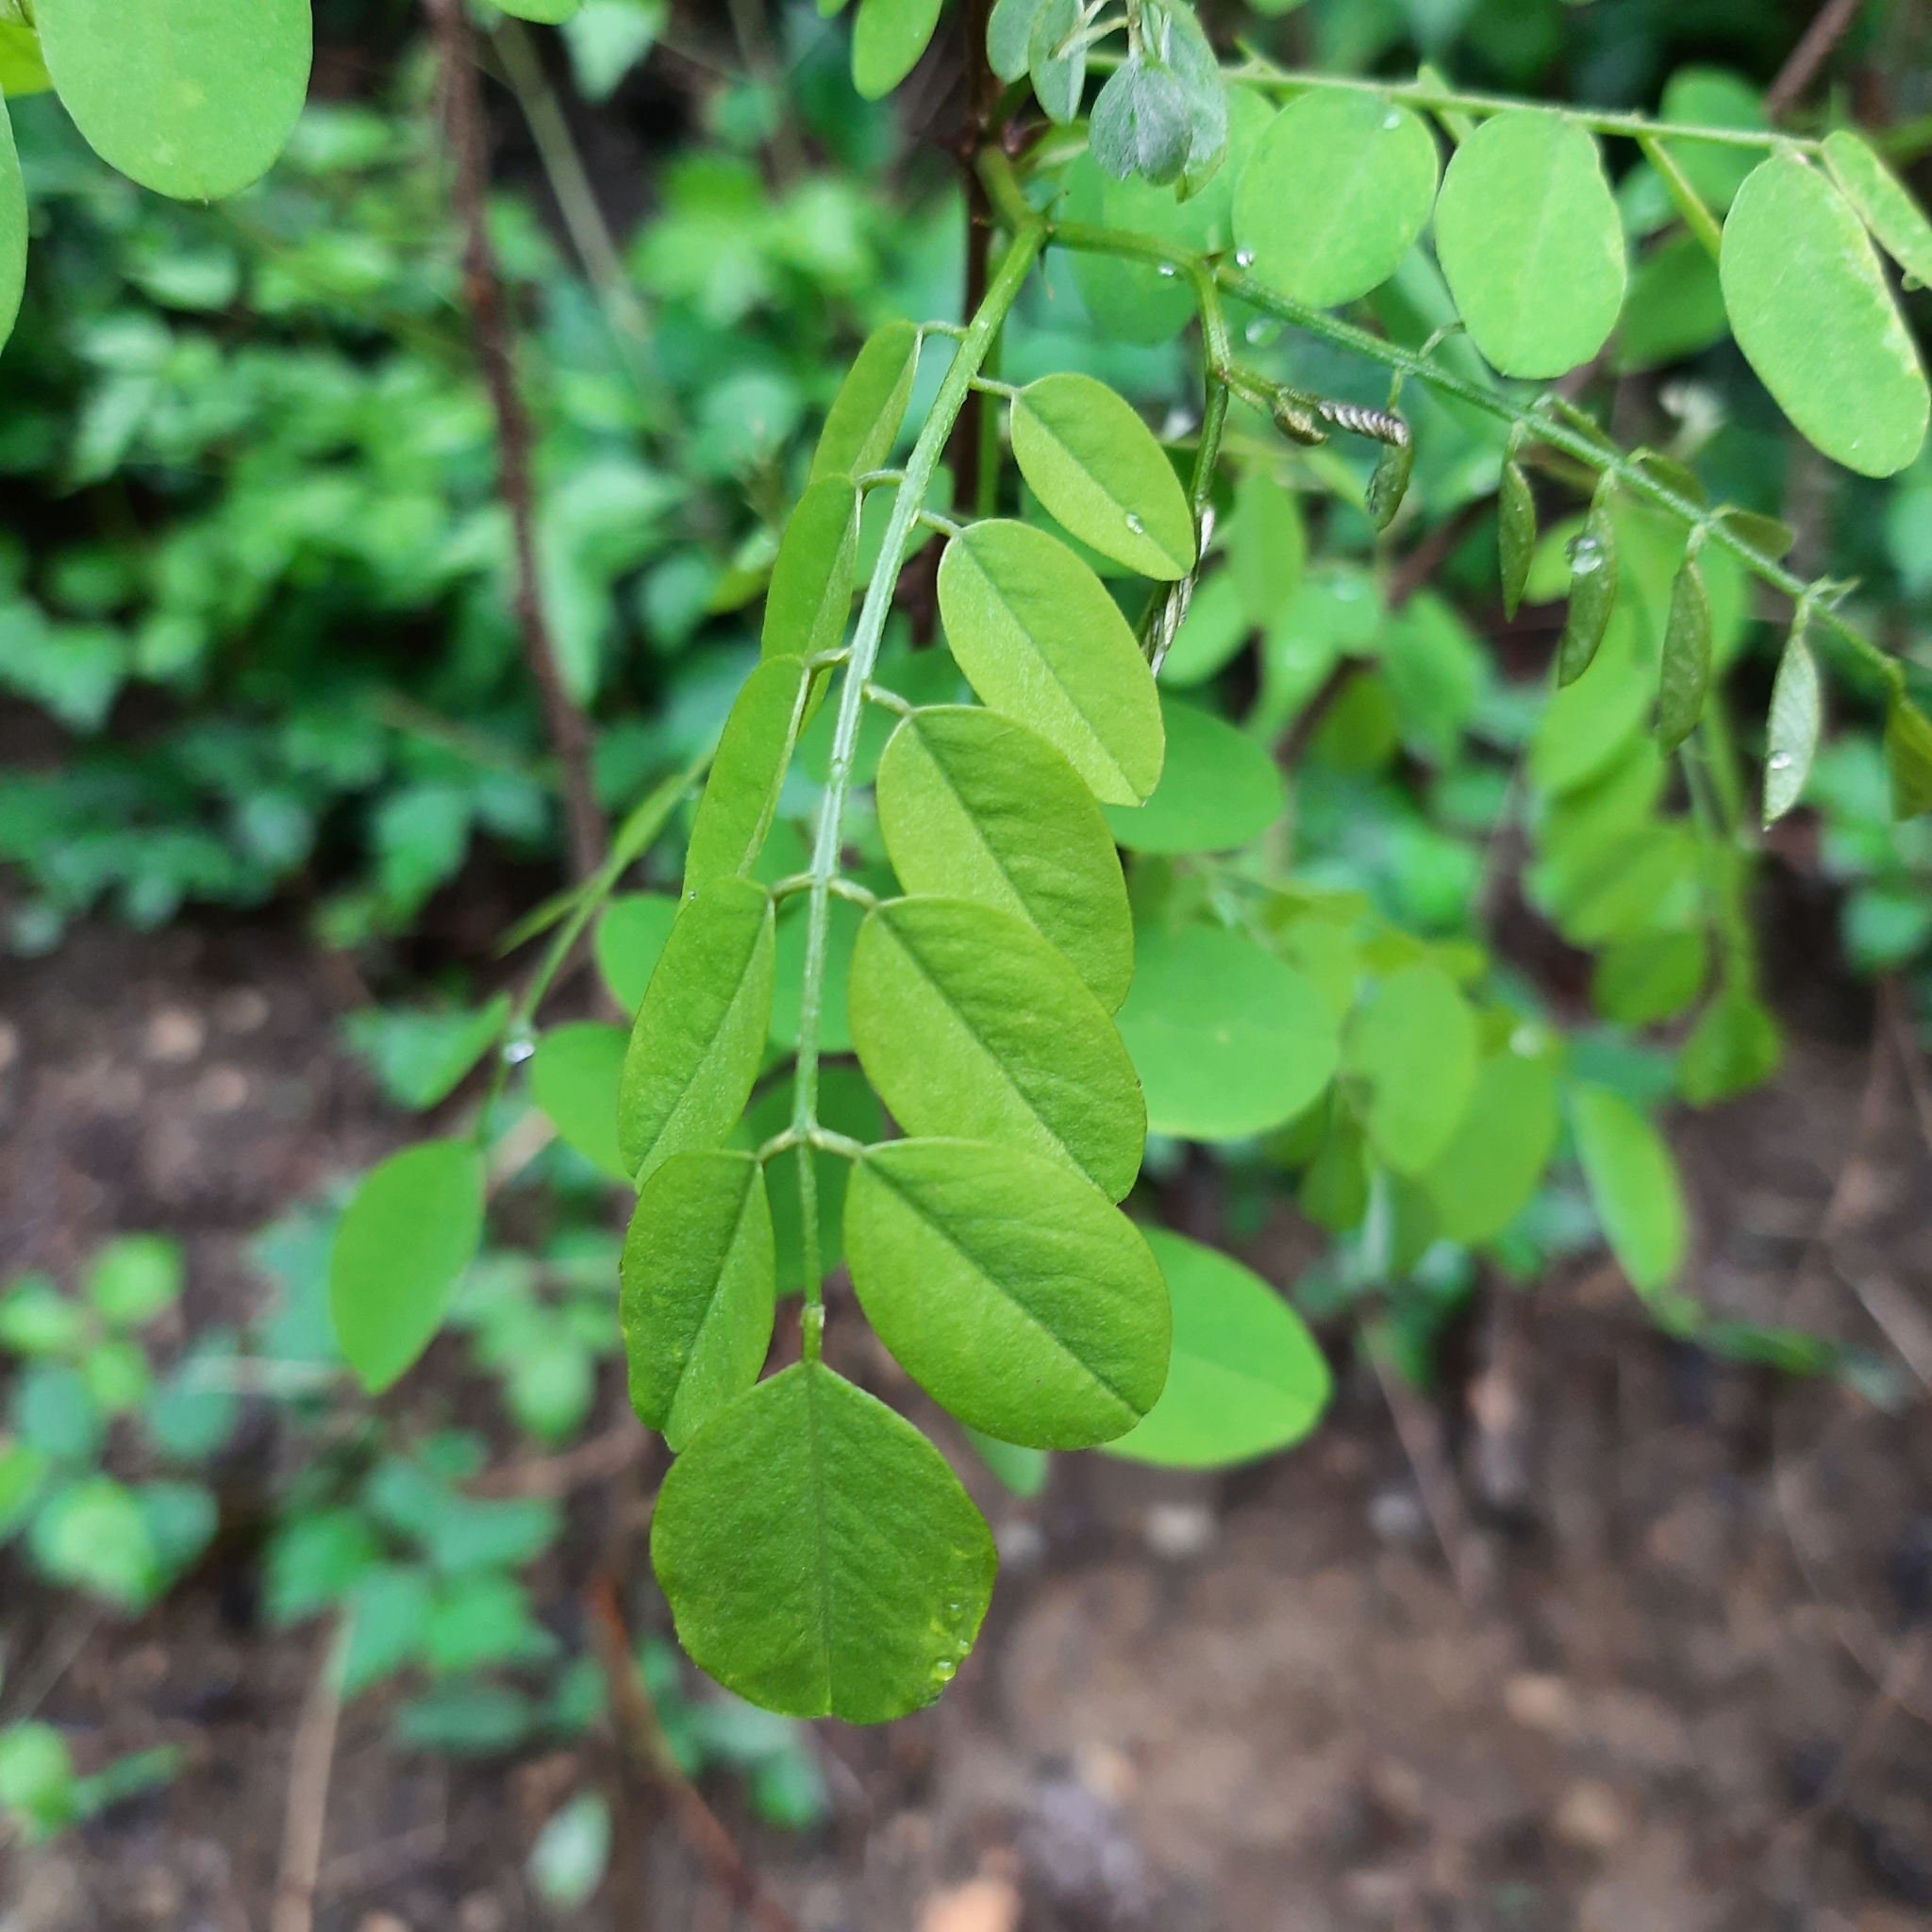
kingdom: Plantae
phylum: Tracheophyta
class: Magnoliopsida
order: Fabales
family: Fabaceae
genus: Robinia
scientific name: Robinia pseudoacacia
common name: Black locust
